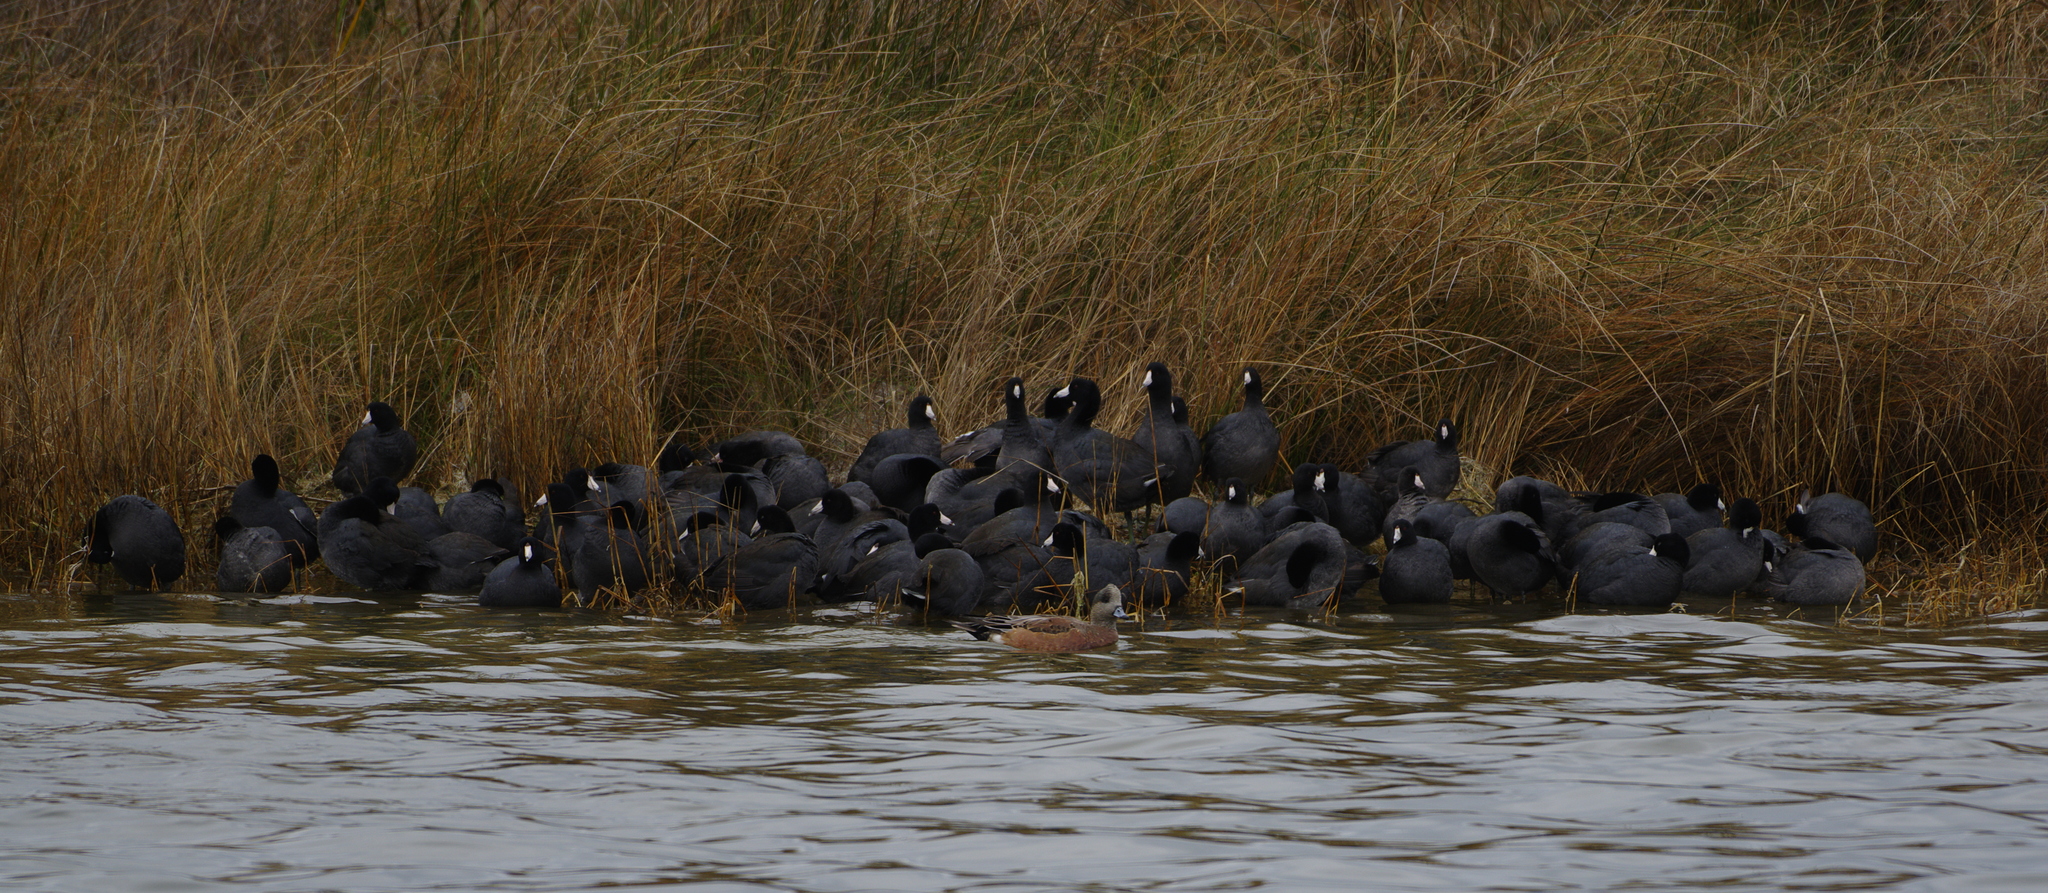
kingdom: Animalia
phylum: Chordata
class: Aves
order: Gruiformes
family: Rallidae
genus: Fulica
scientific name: Fulica americana
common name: American coot
